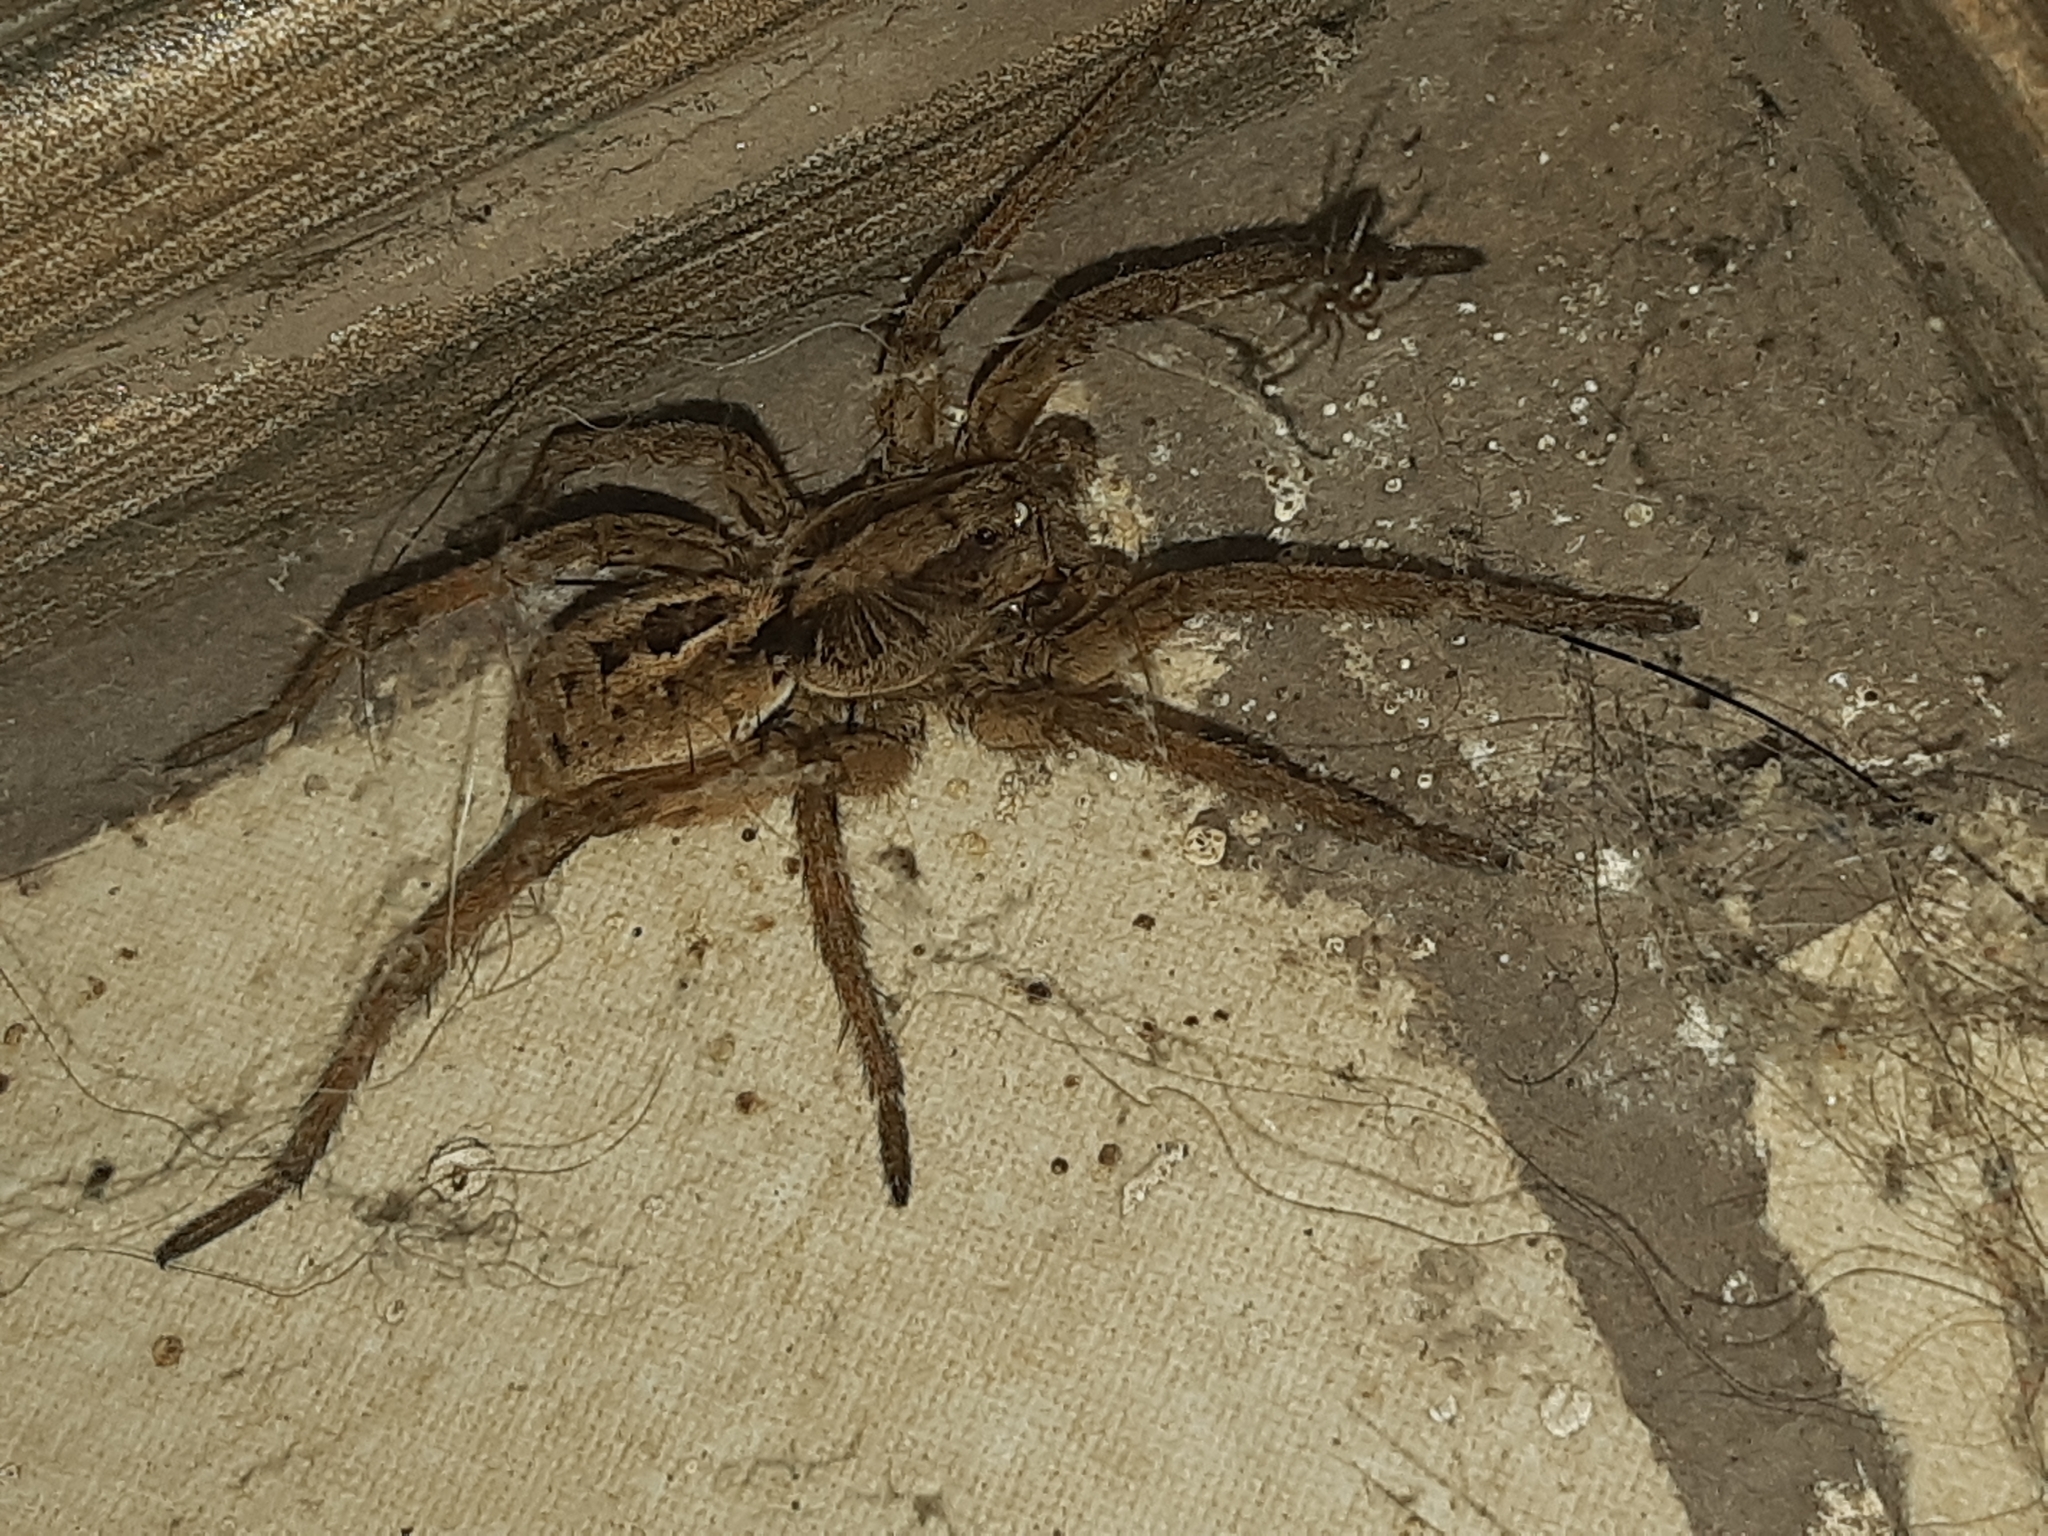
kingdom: Animalia
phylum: Arthropoda
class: Arachnida
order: Araneae
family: Lycosidae
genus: Lycosa
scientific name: Lycosa erythrognatha
